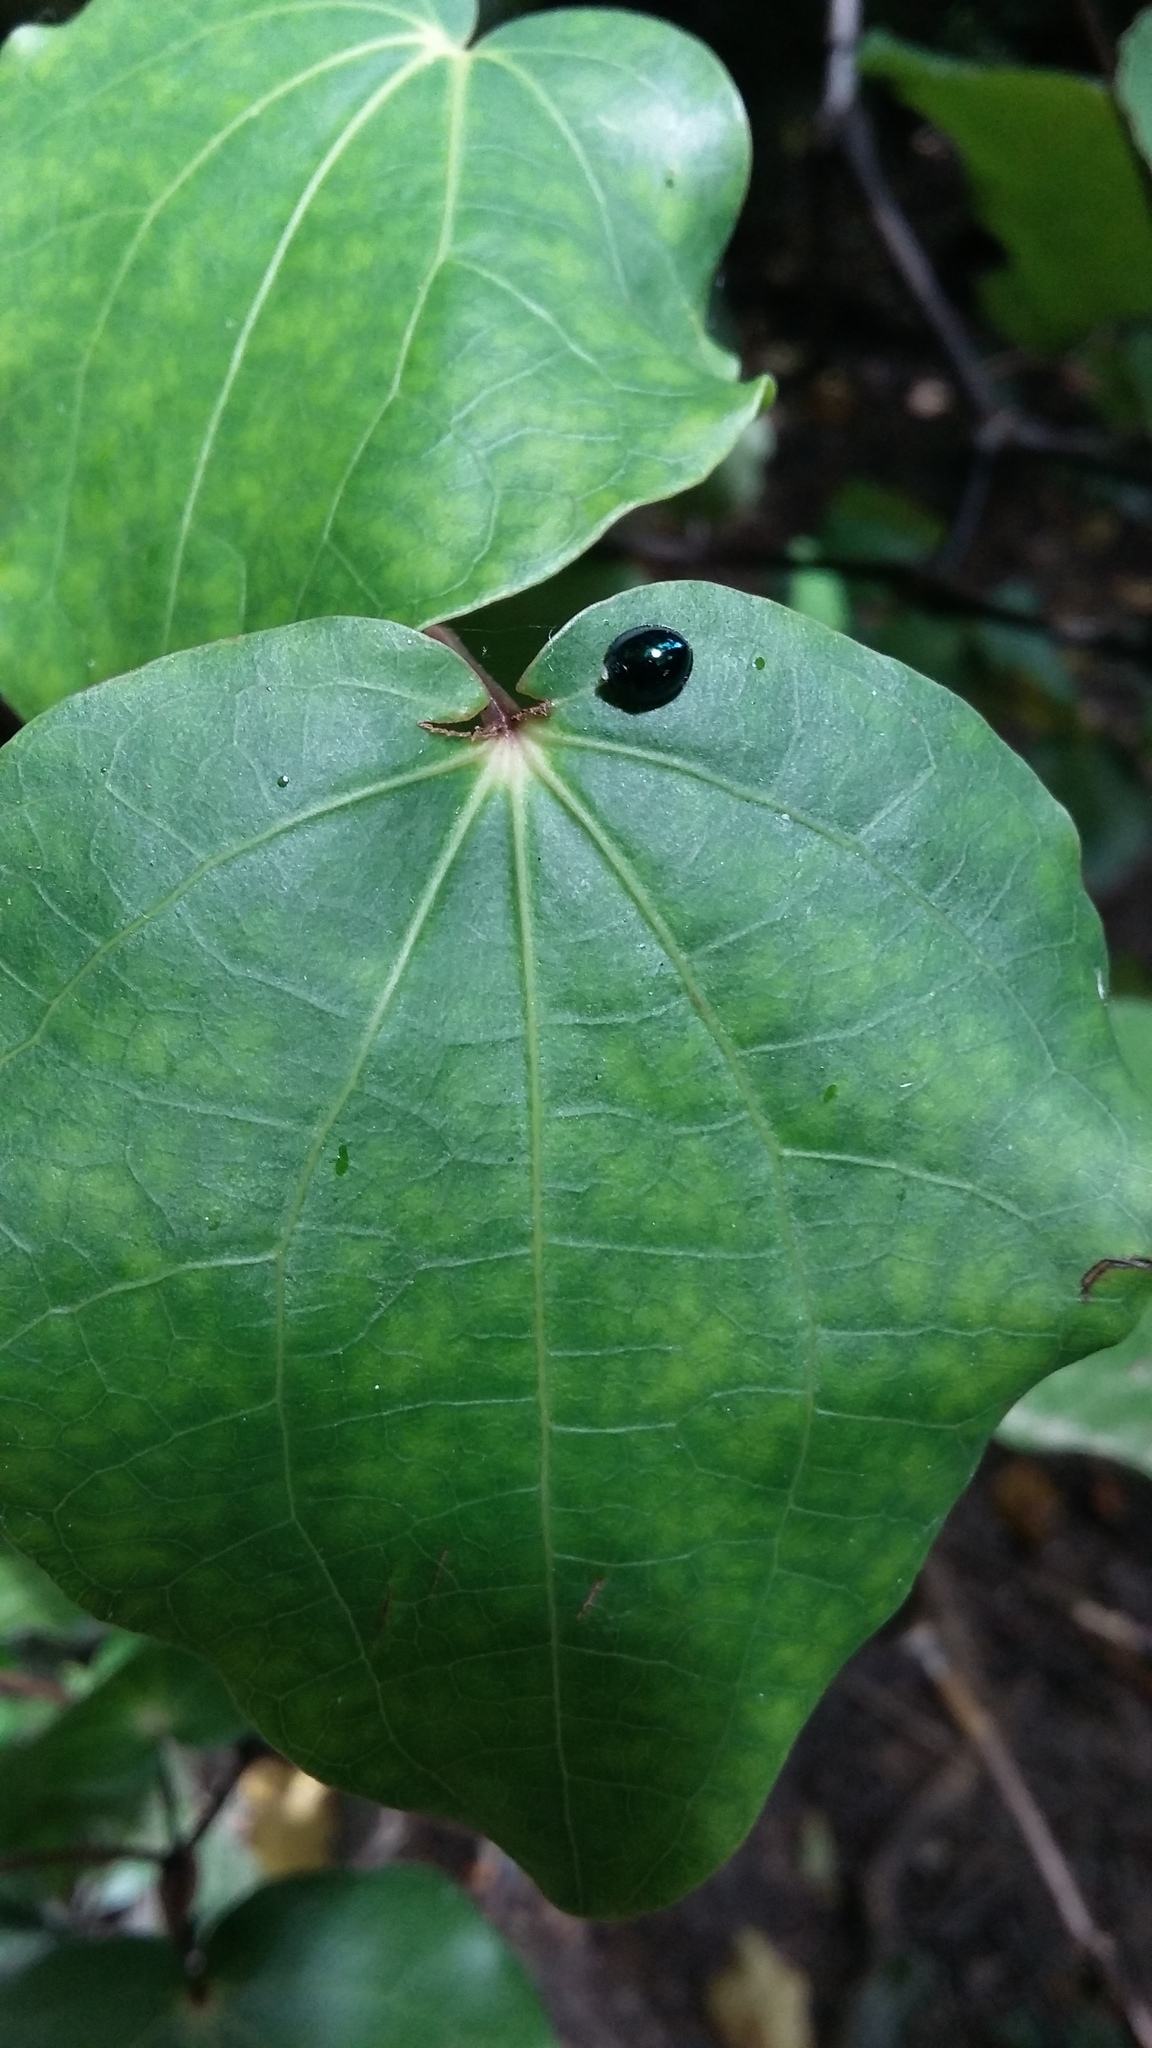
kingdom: Animalia
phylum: Arthropoda
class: Insecta
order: Coleoptera
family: Coccinellidae
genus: Halmus
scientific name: Halmus chalybeus
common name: Steel blue ladybird beetle
